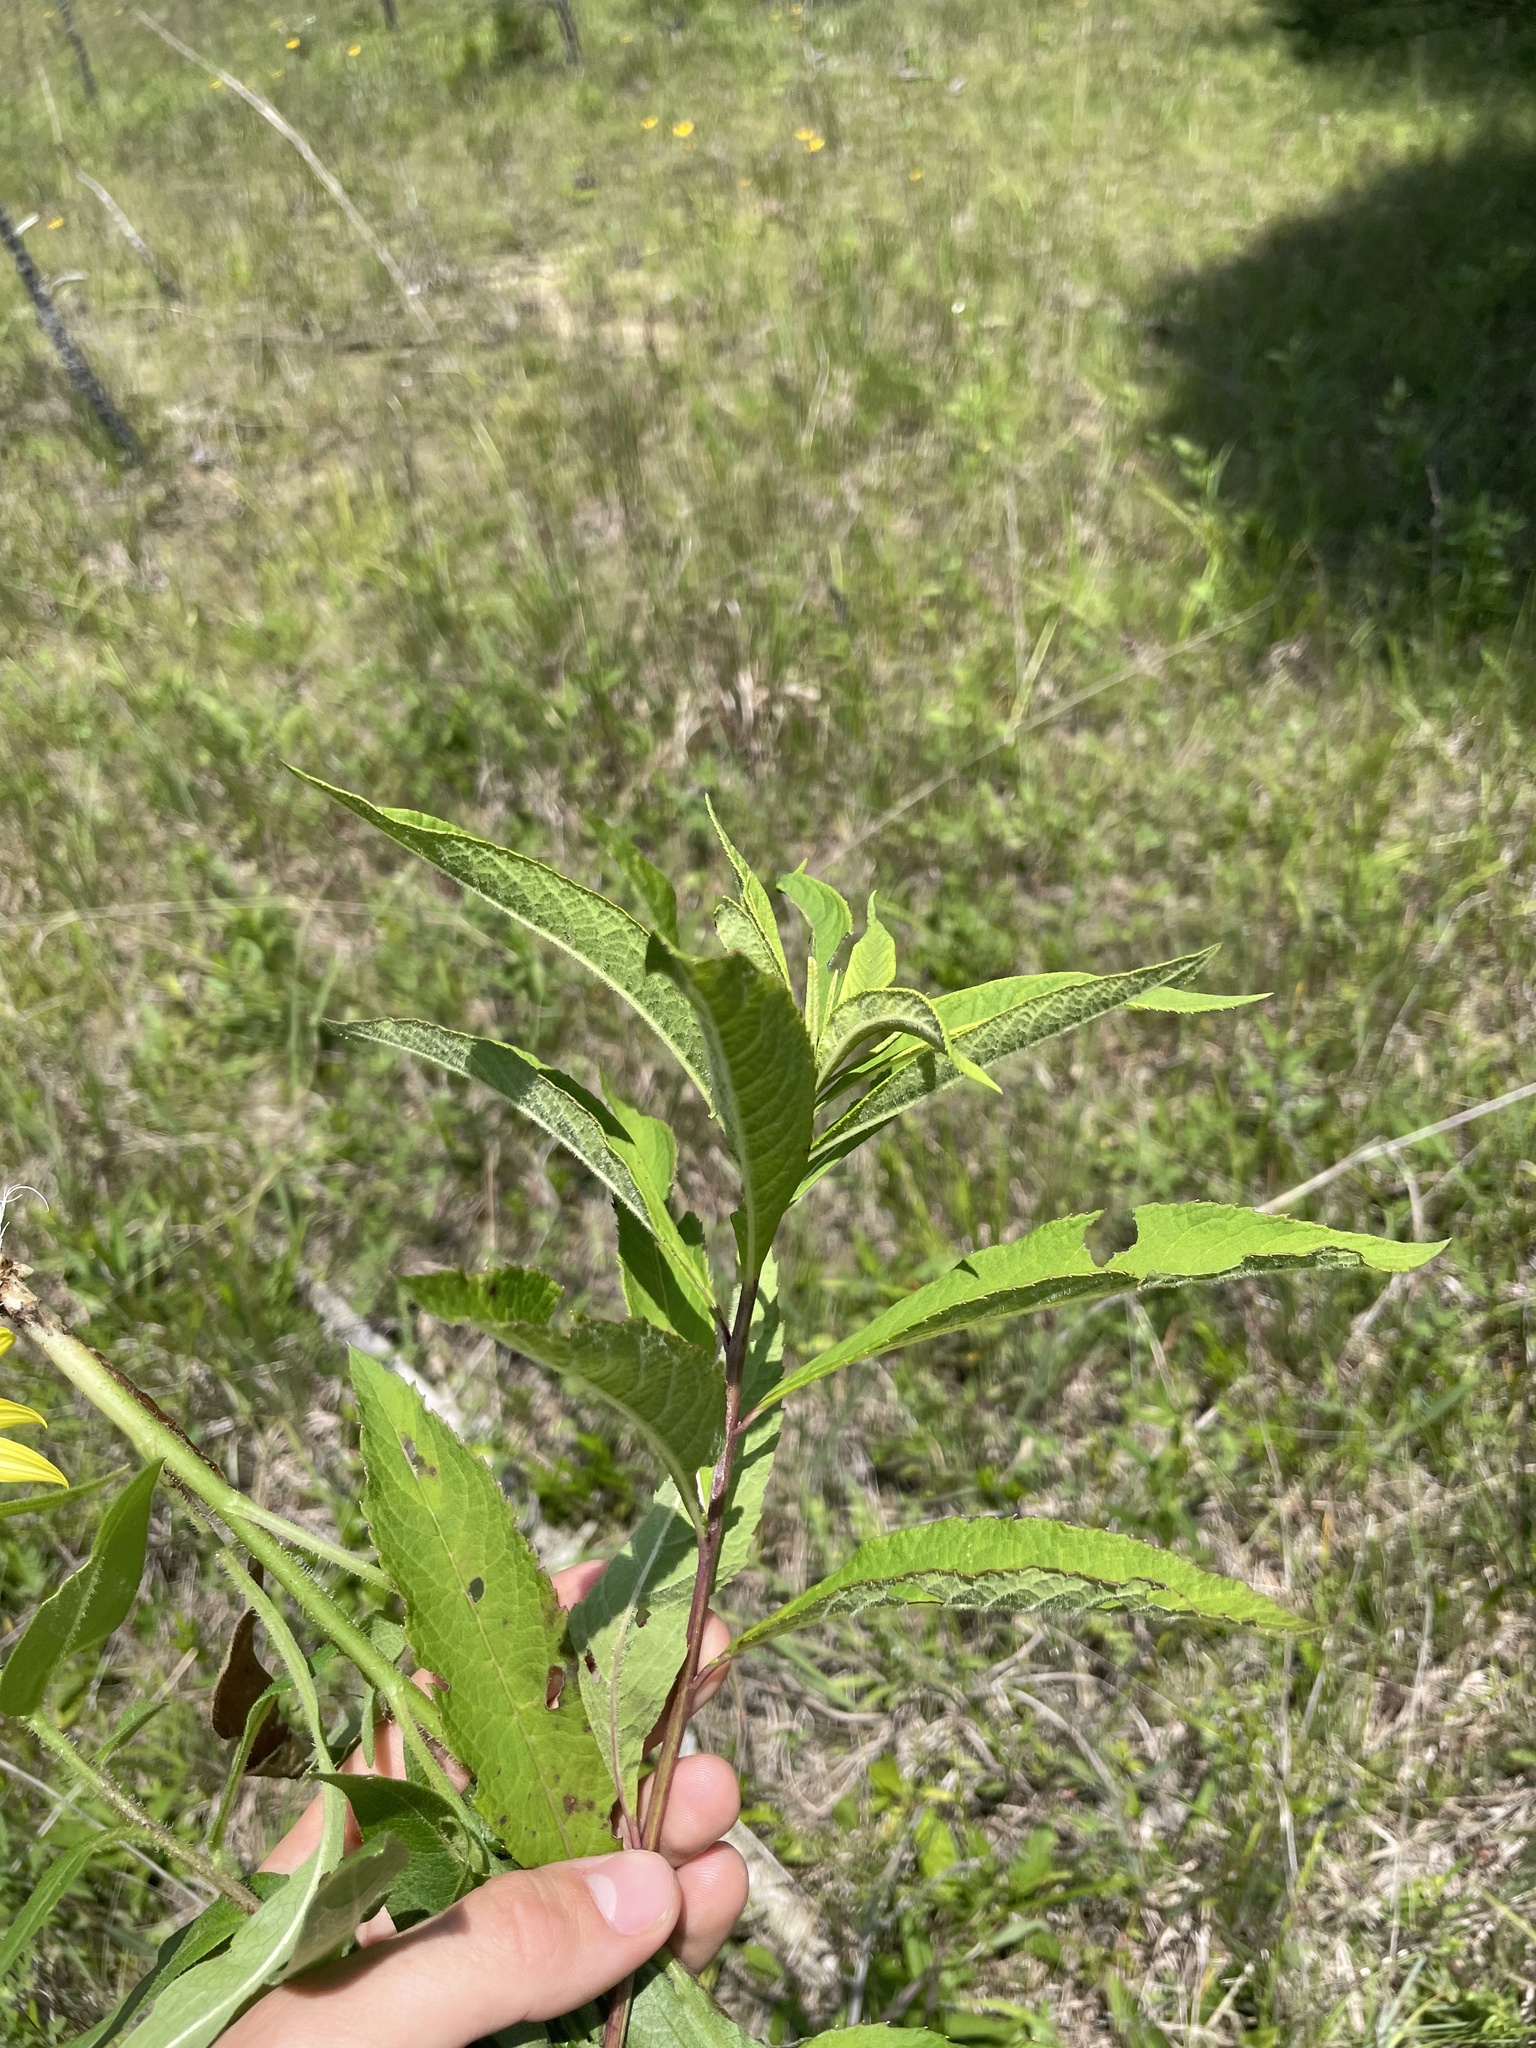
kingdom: Plantae
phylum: Tracheophyta
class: Magnoliopsida
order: Asterales
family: Asteraceae
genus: Vernonia
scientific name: Vernonia missurica
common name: Missouri ironweed
